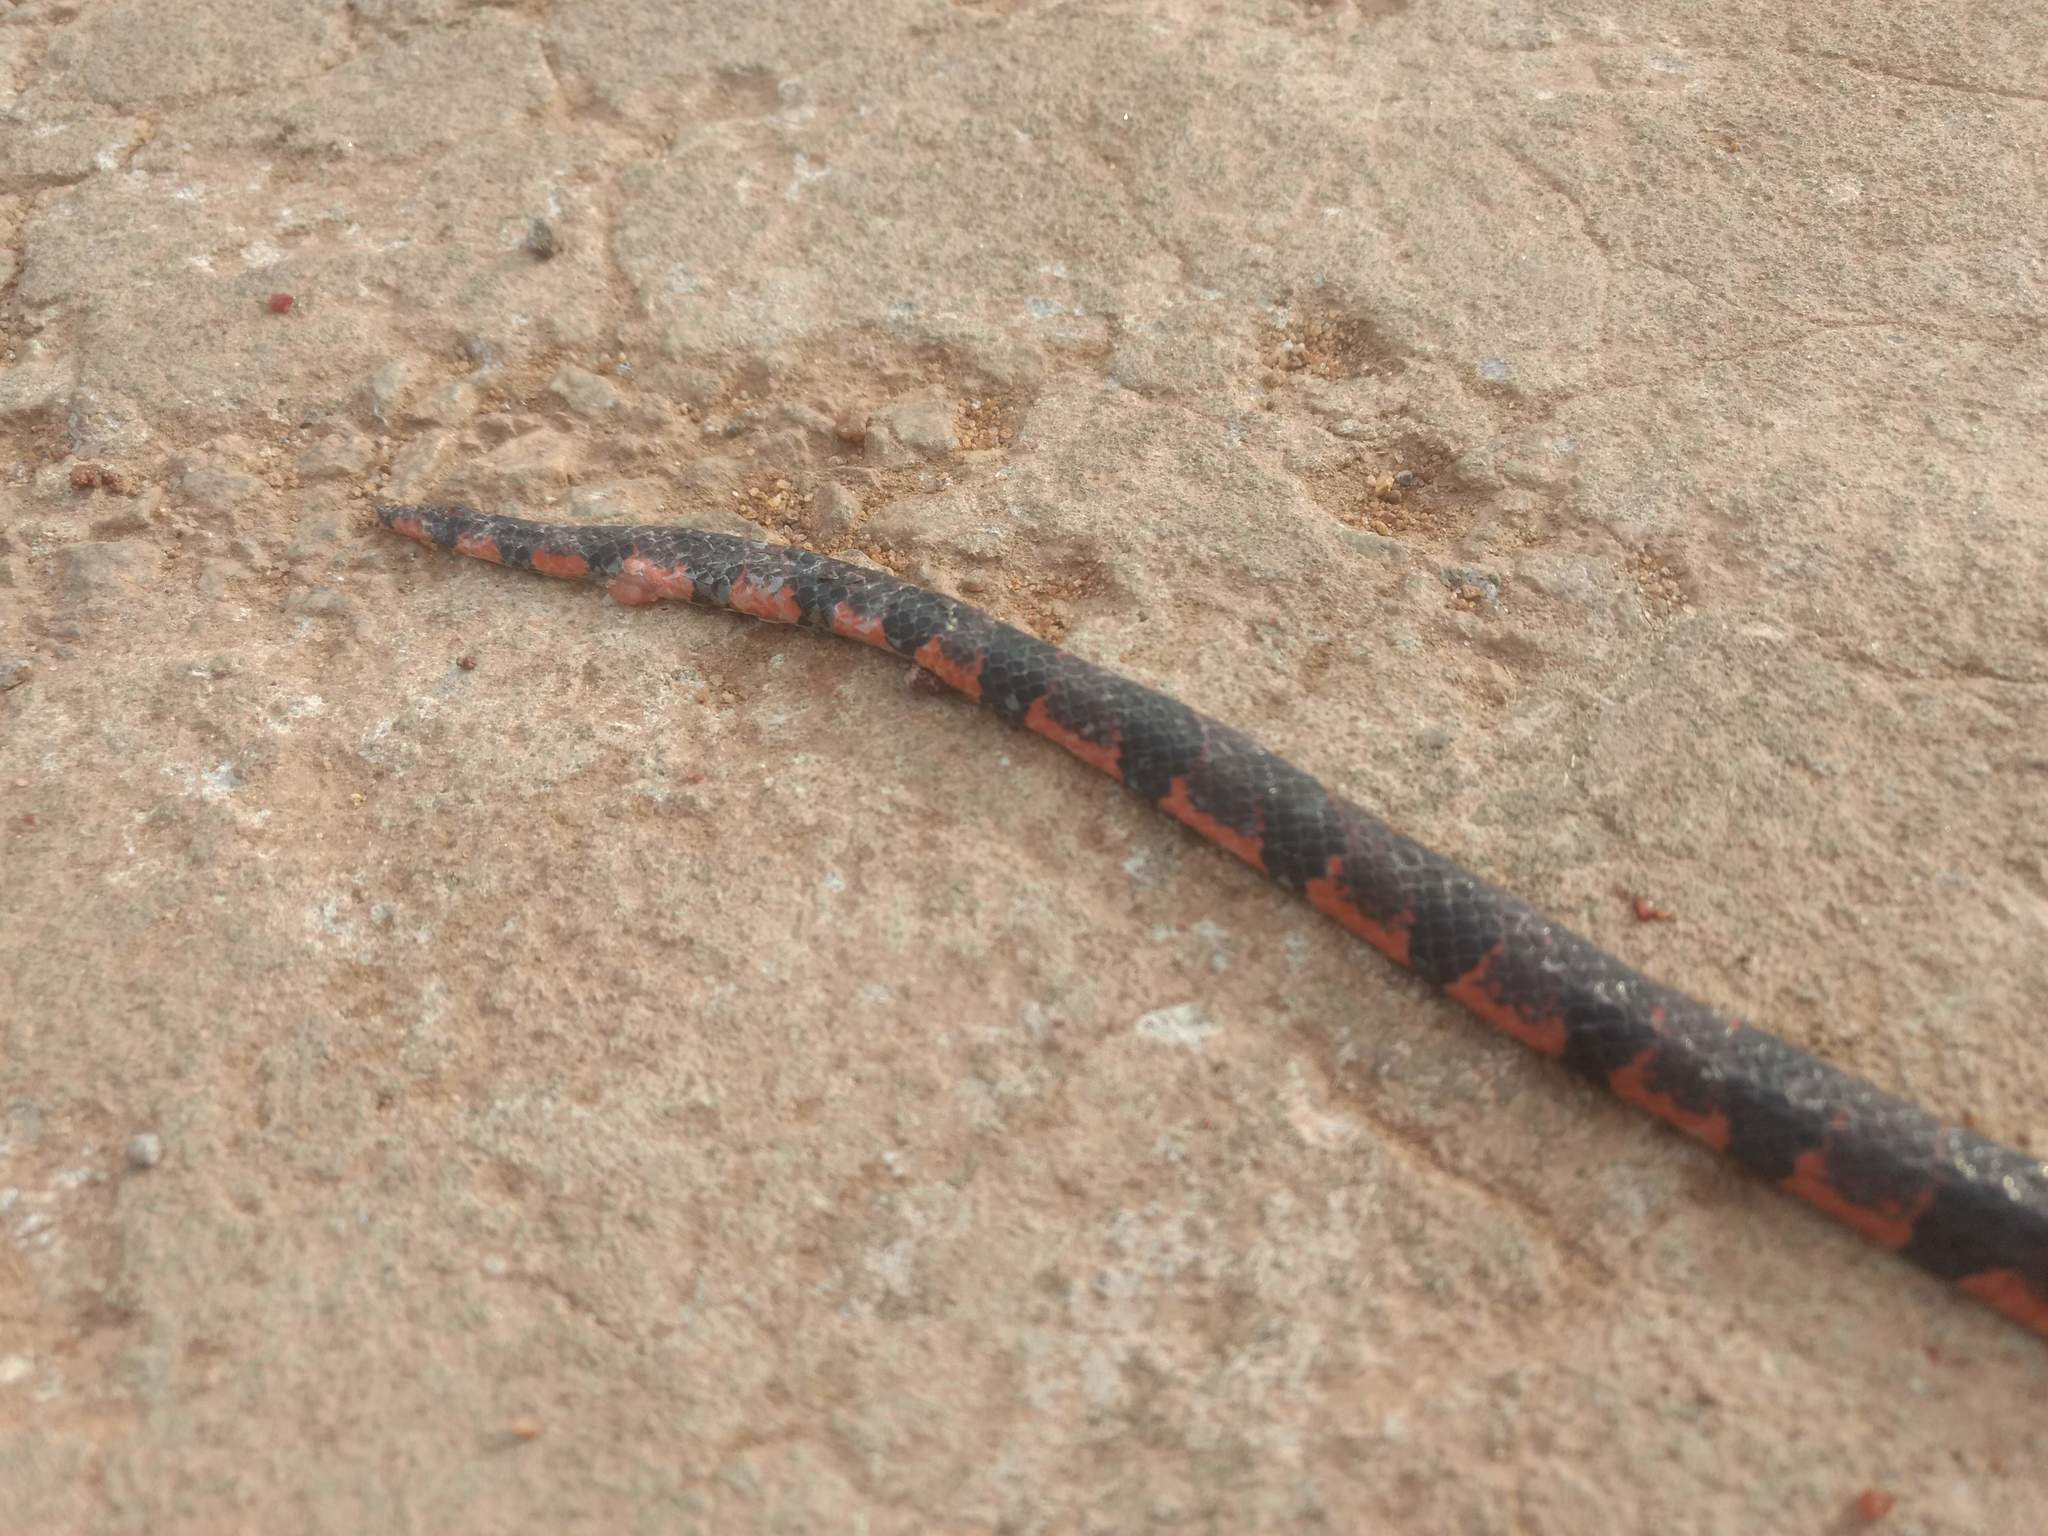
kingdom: Animalia
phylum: Chordata
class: Squamata
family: Elapidae
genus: Calliophis
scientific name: Calliophis bibroni
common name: Bibron's coral snake
